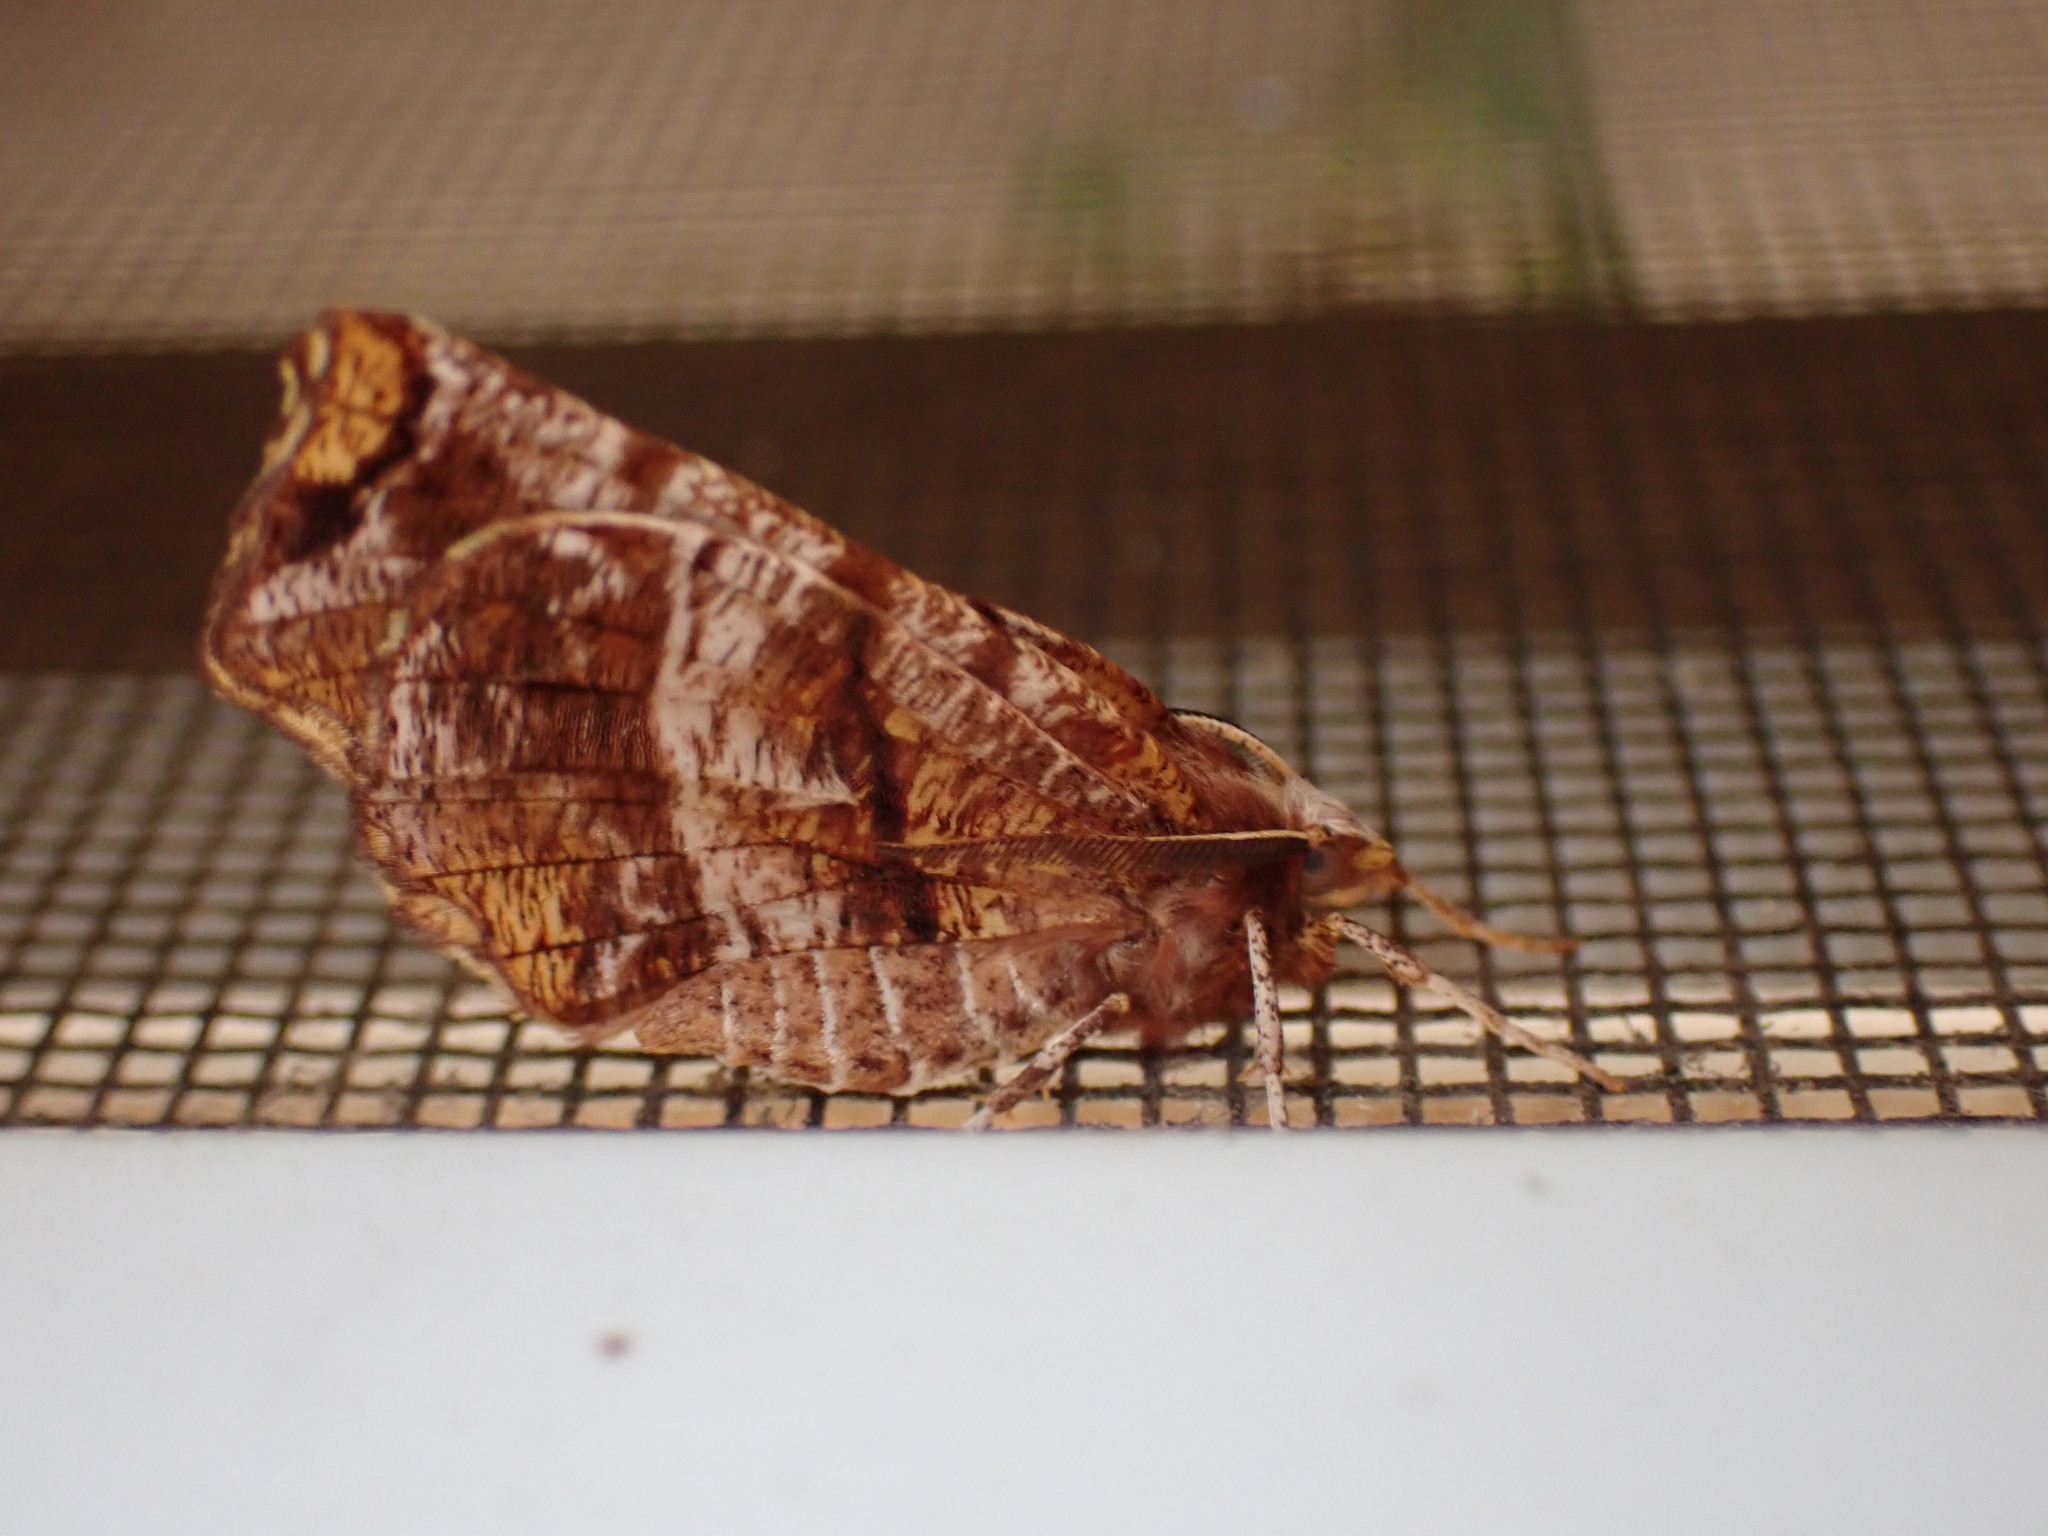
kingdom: Animalia
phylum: Arthropoda
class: Insecta
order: Lepidoptera
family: Geometridae
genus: Selenia
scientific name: Selenia alciphearia
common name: Brown-tipped thorn
